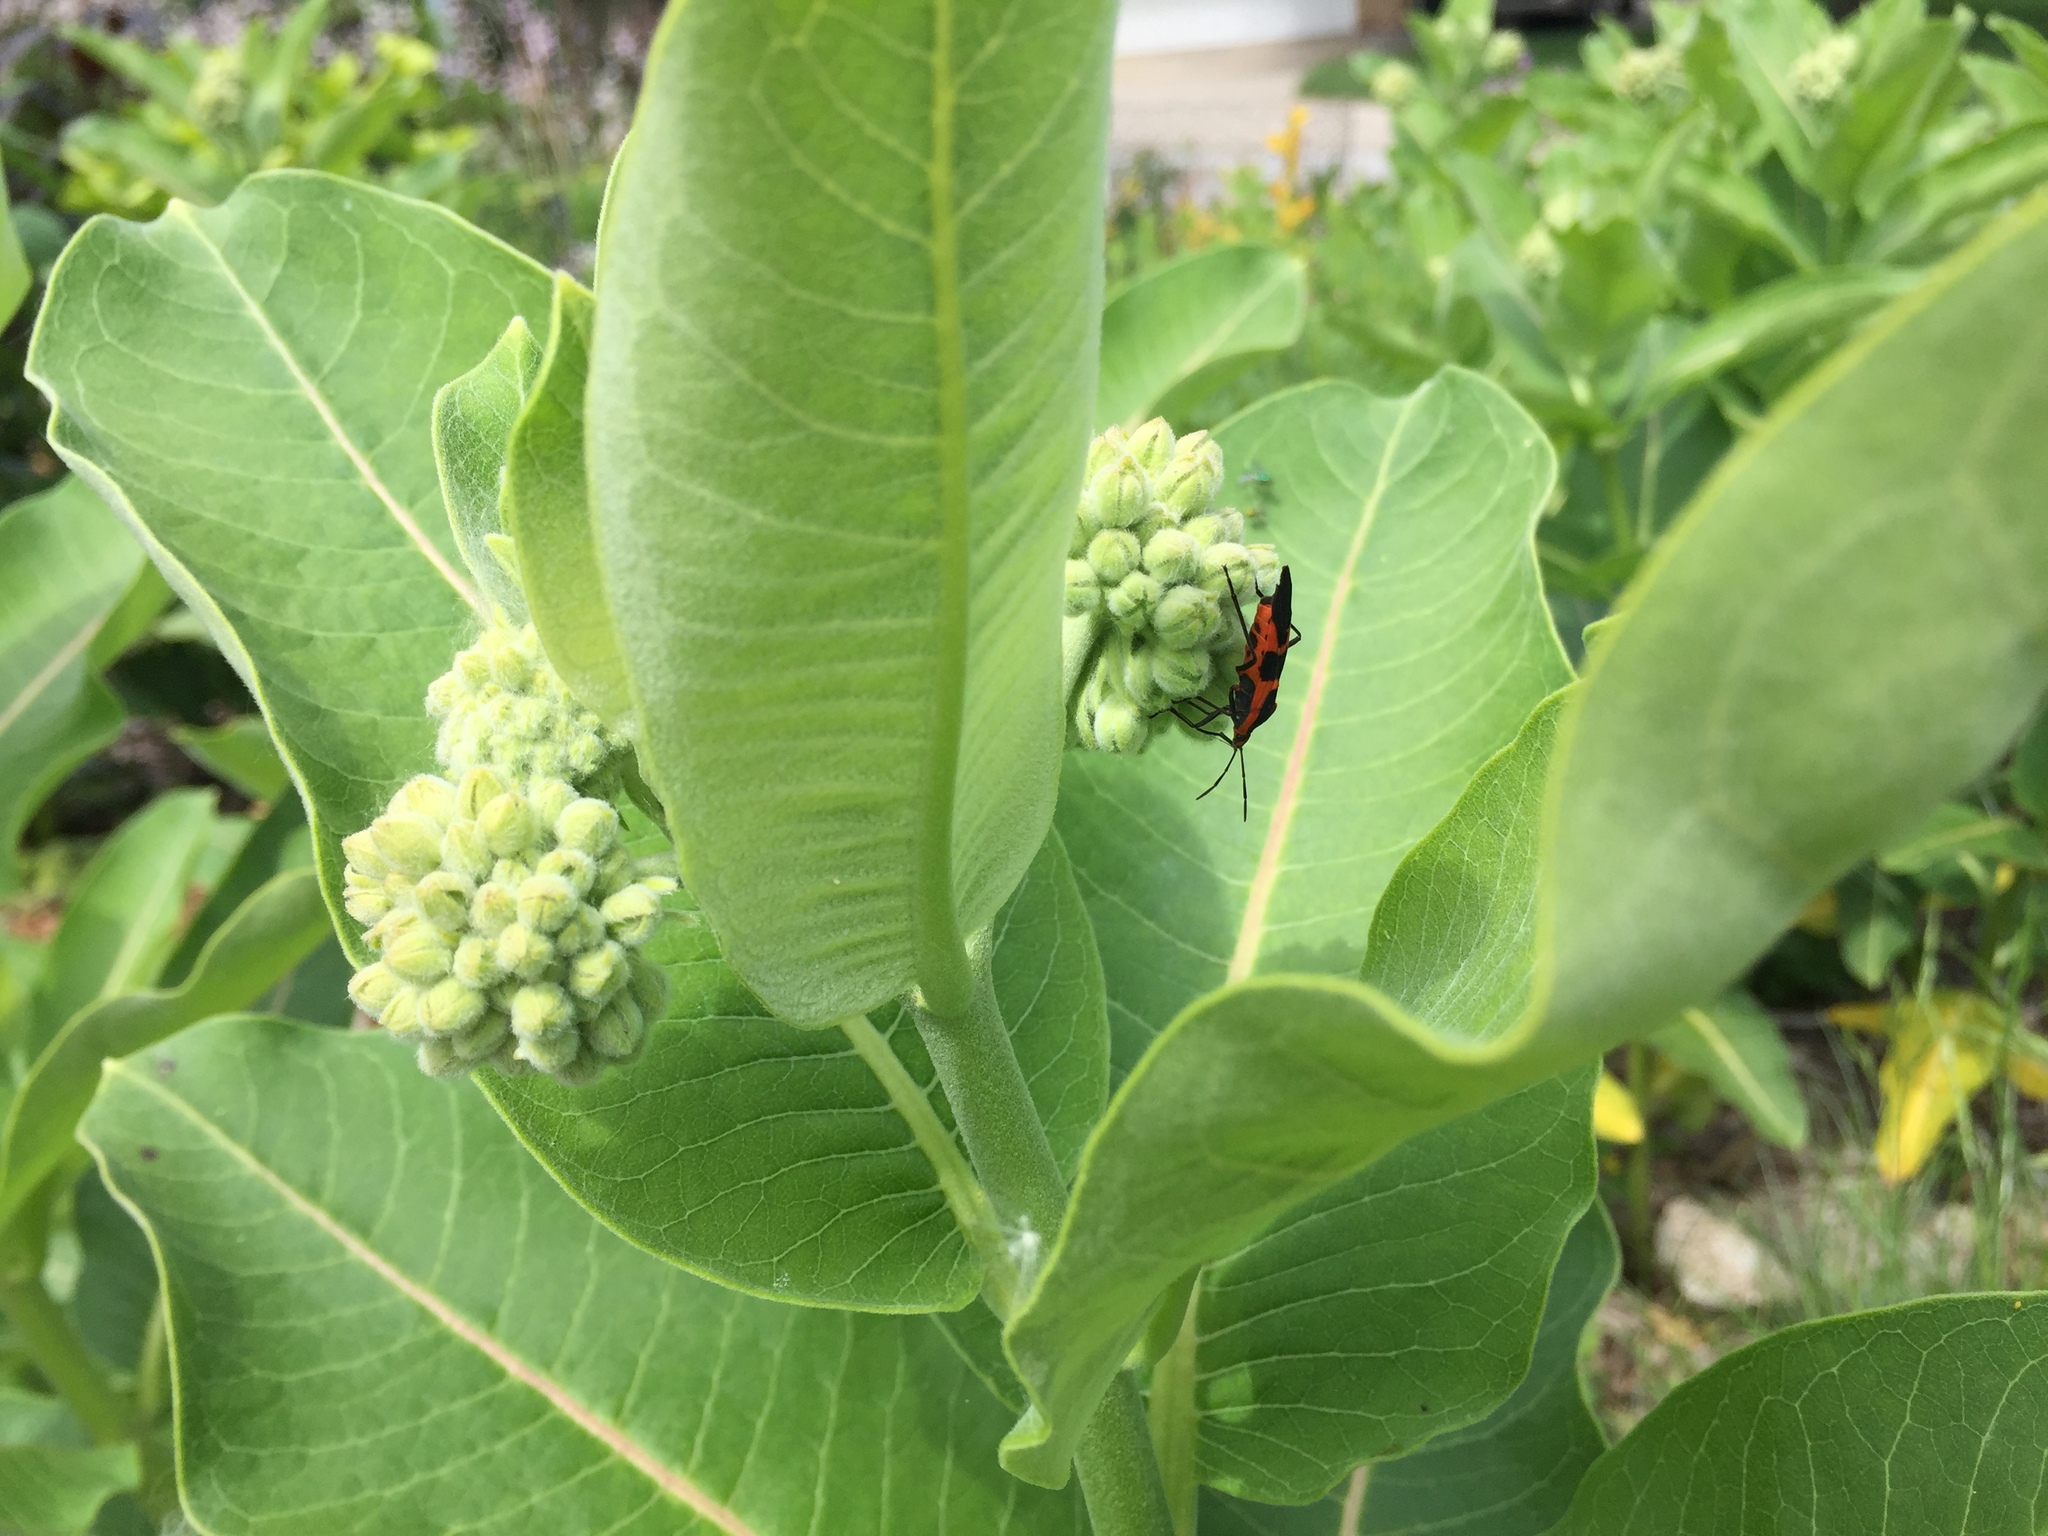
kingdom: Animalia
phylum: Arthropoda
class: Insecta
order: Hemiptera
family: Lygaeidae
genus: Oncopeltus
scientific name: Oncopeltus fasciatus
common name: Large milkweed bug
